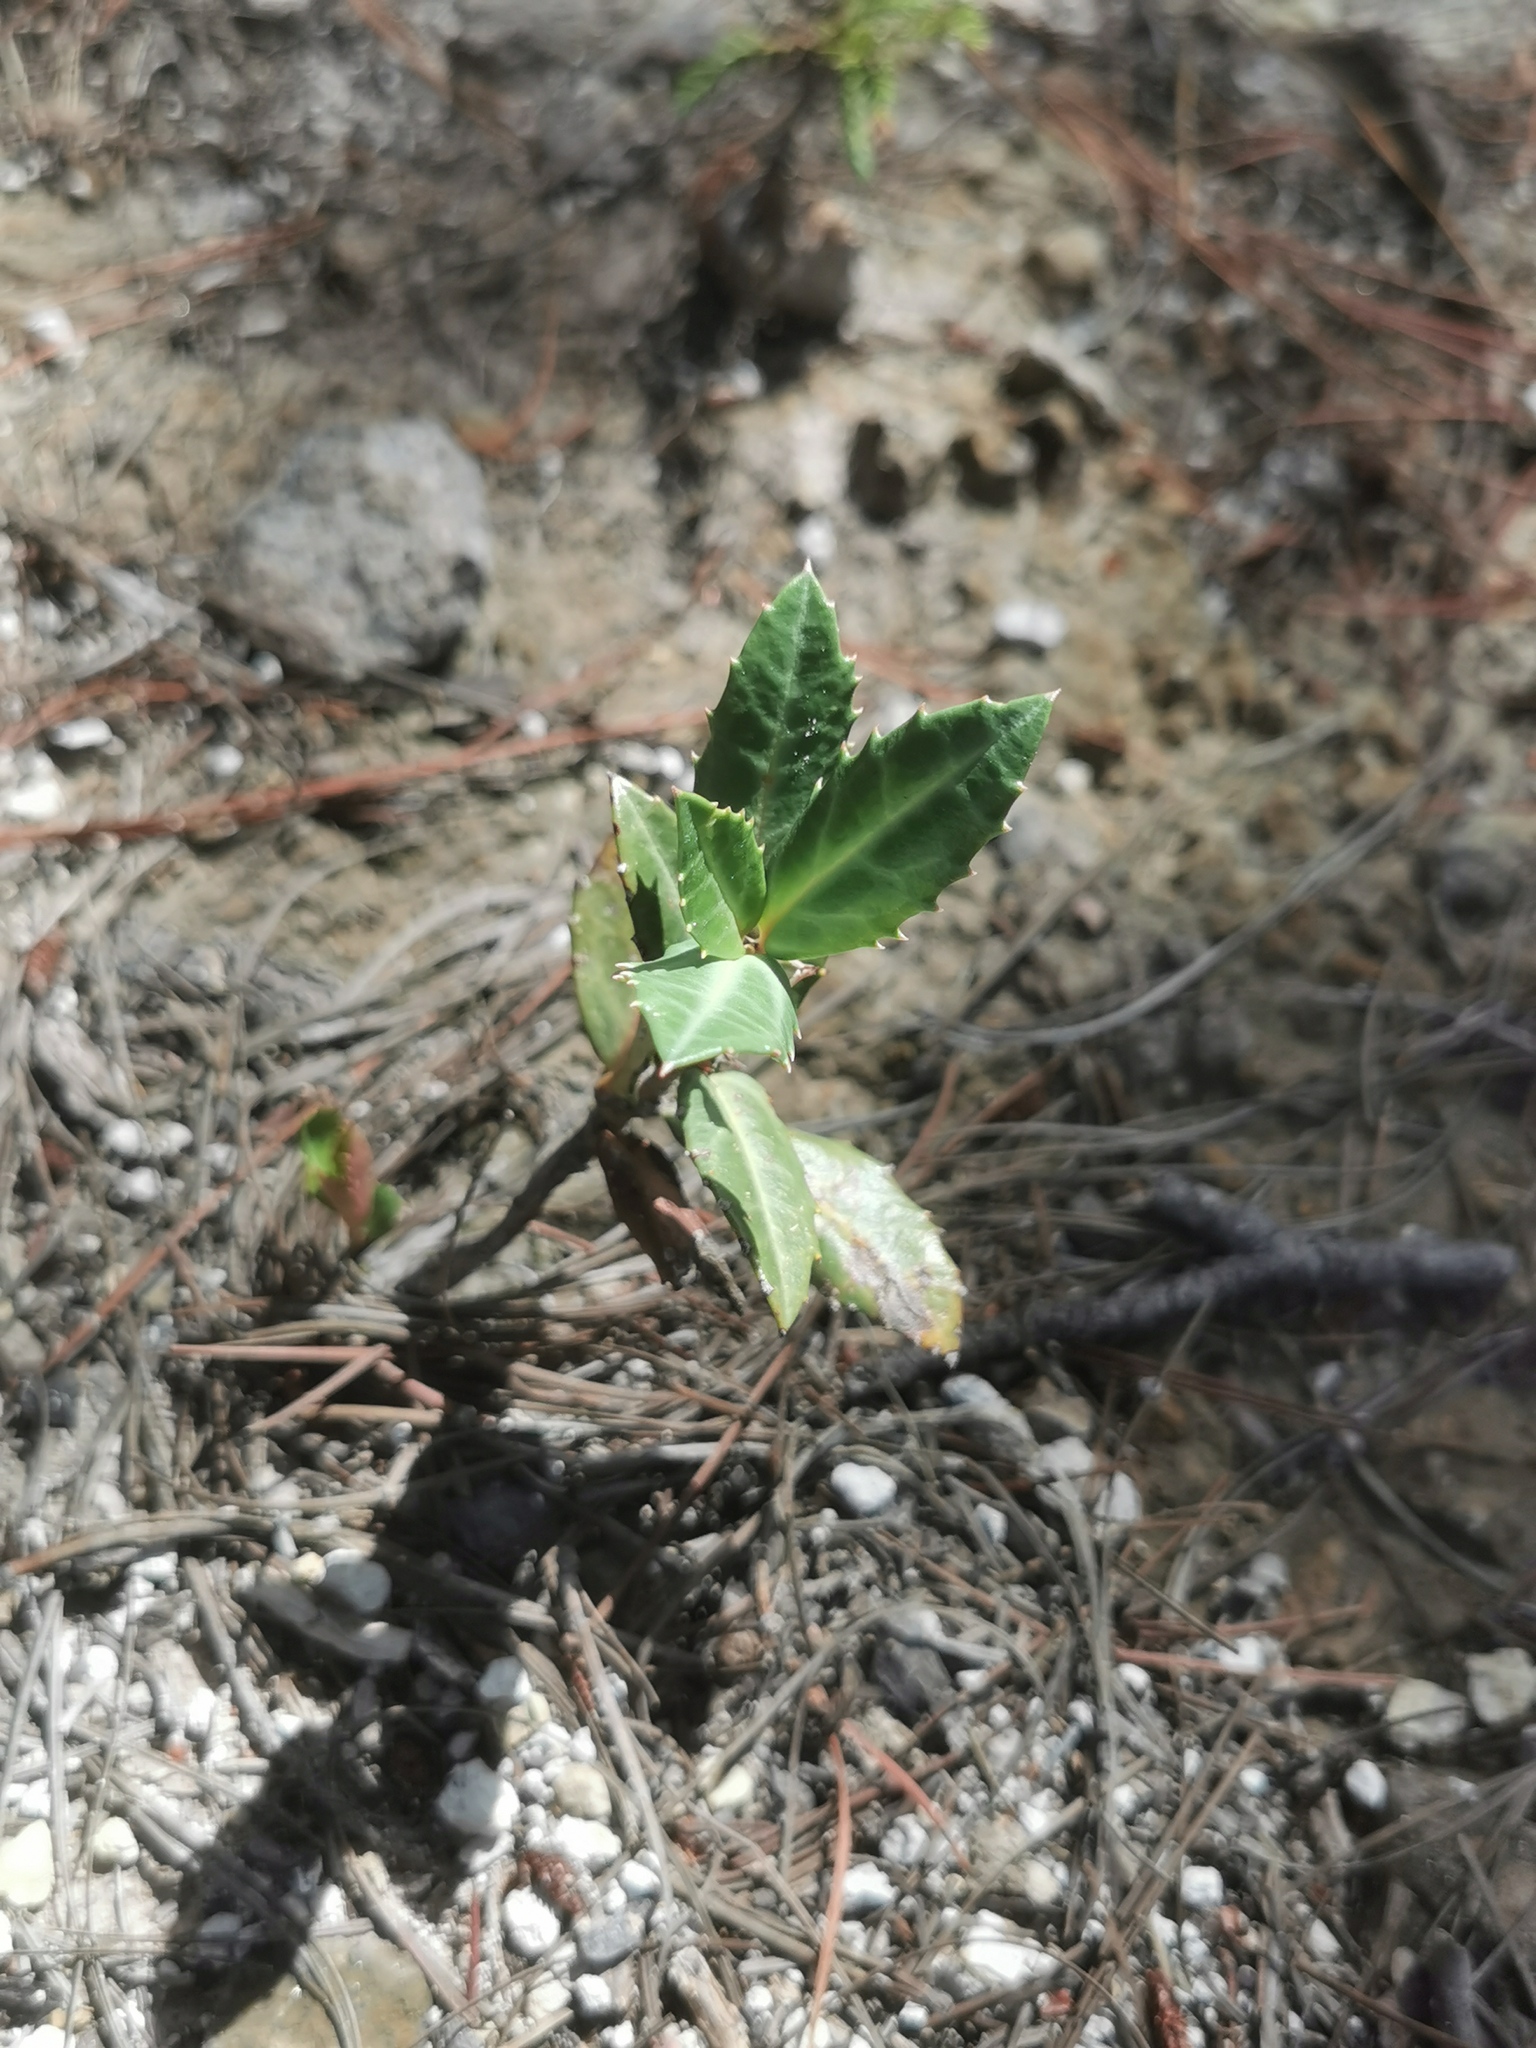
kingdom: Plantae
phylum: Tracheophyta
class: Magnoliopsida
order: Ericales
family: Ericaceae
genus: Chimaphila
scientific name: Chimaphila maculata
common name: Spotted pipsissewa
